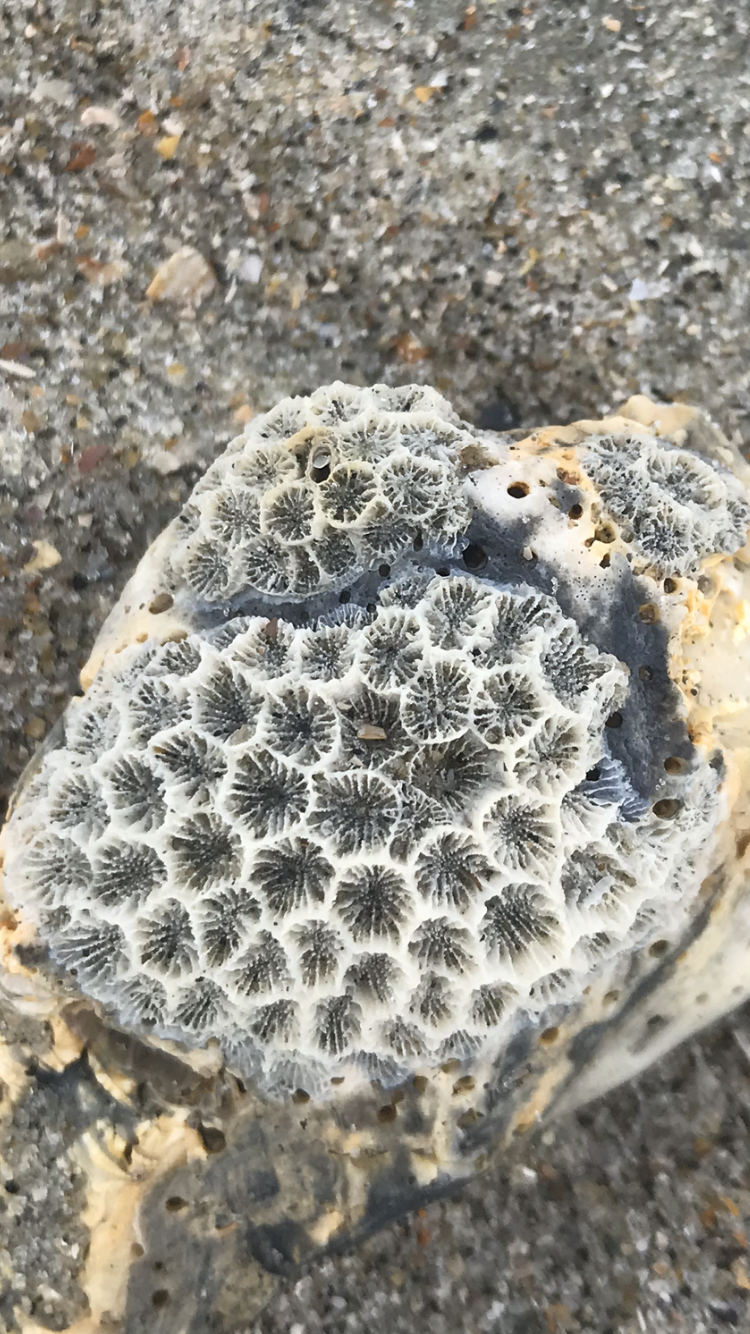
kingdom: Animalia
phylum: Cnidaria
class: Anthozoa
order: Scleractinia
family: Astrangiidae
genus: Astrangia
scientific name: Astrangia poculata
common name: Northern star coral
